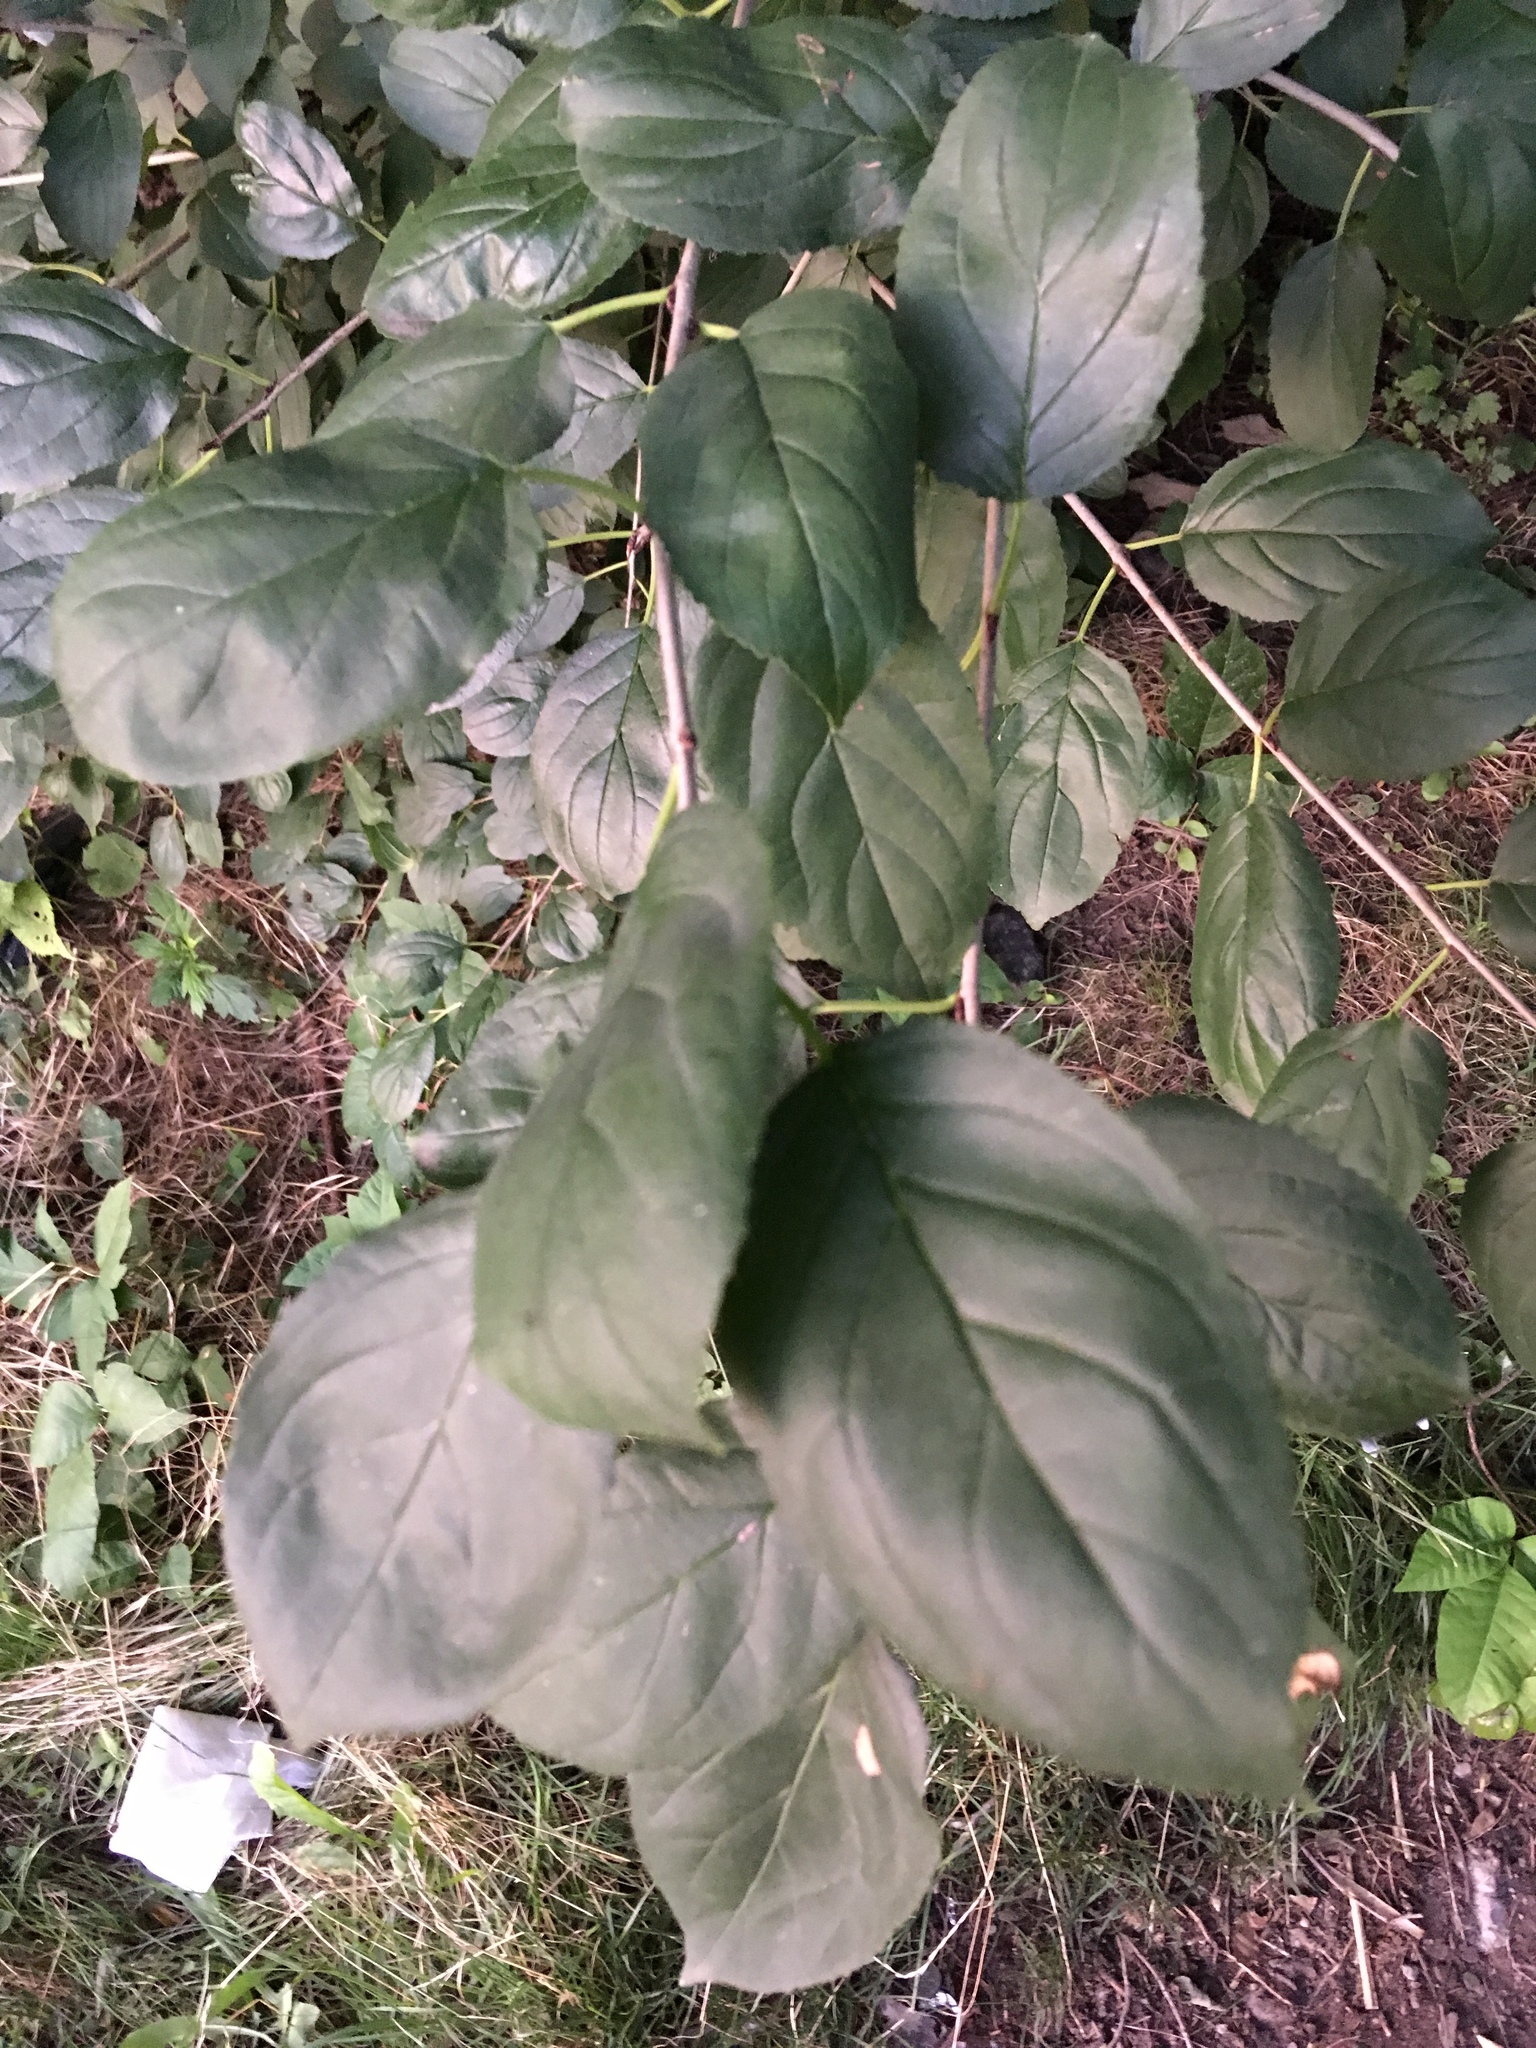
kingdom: Plantae
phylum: Tracheophyta
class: Magnoliopsida
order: Rosales
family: Rhamnaceae
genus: Rhamnus
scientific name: Rhamnus cathartica
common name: Common buckthorn
